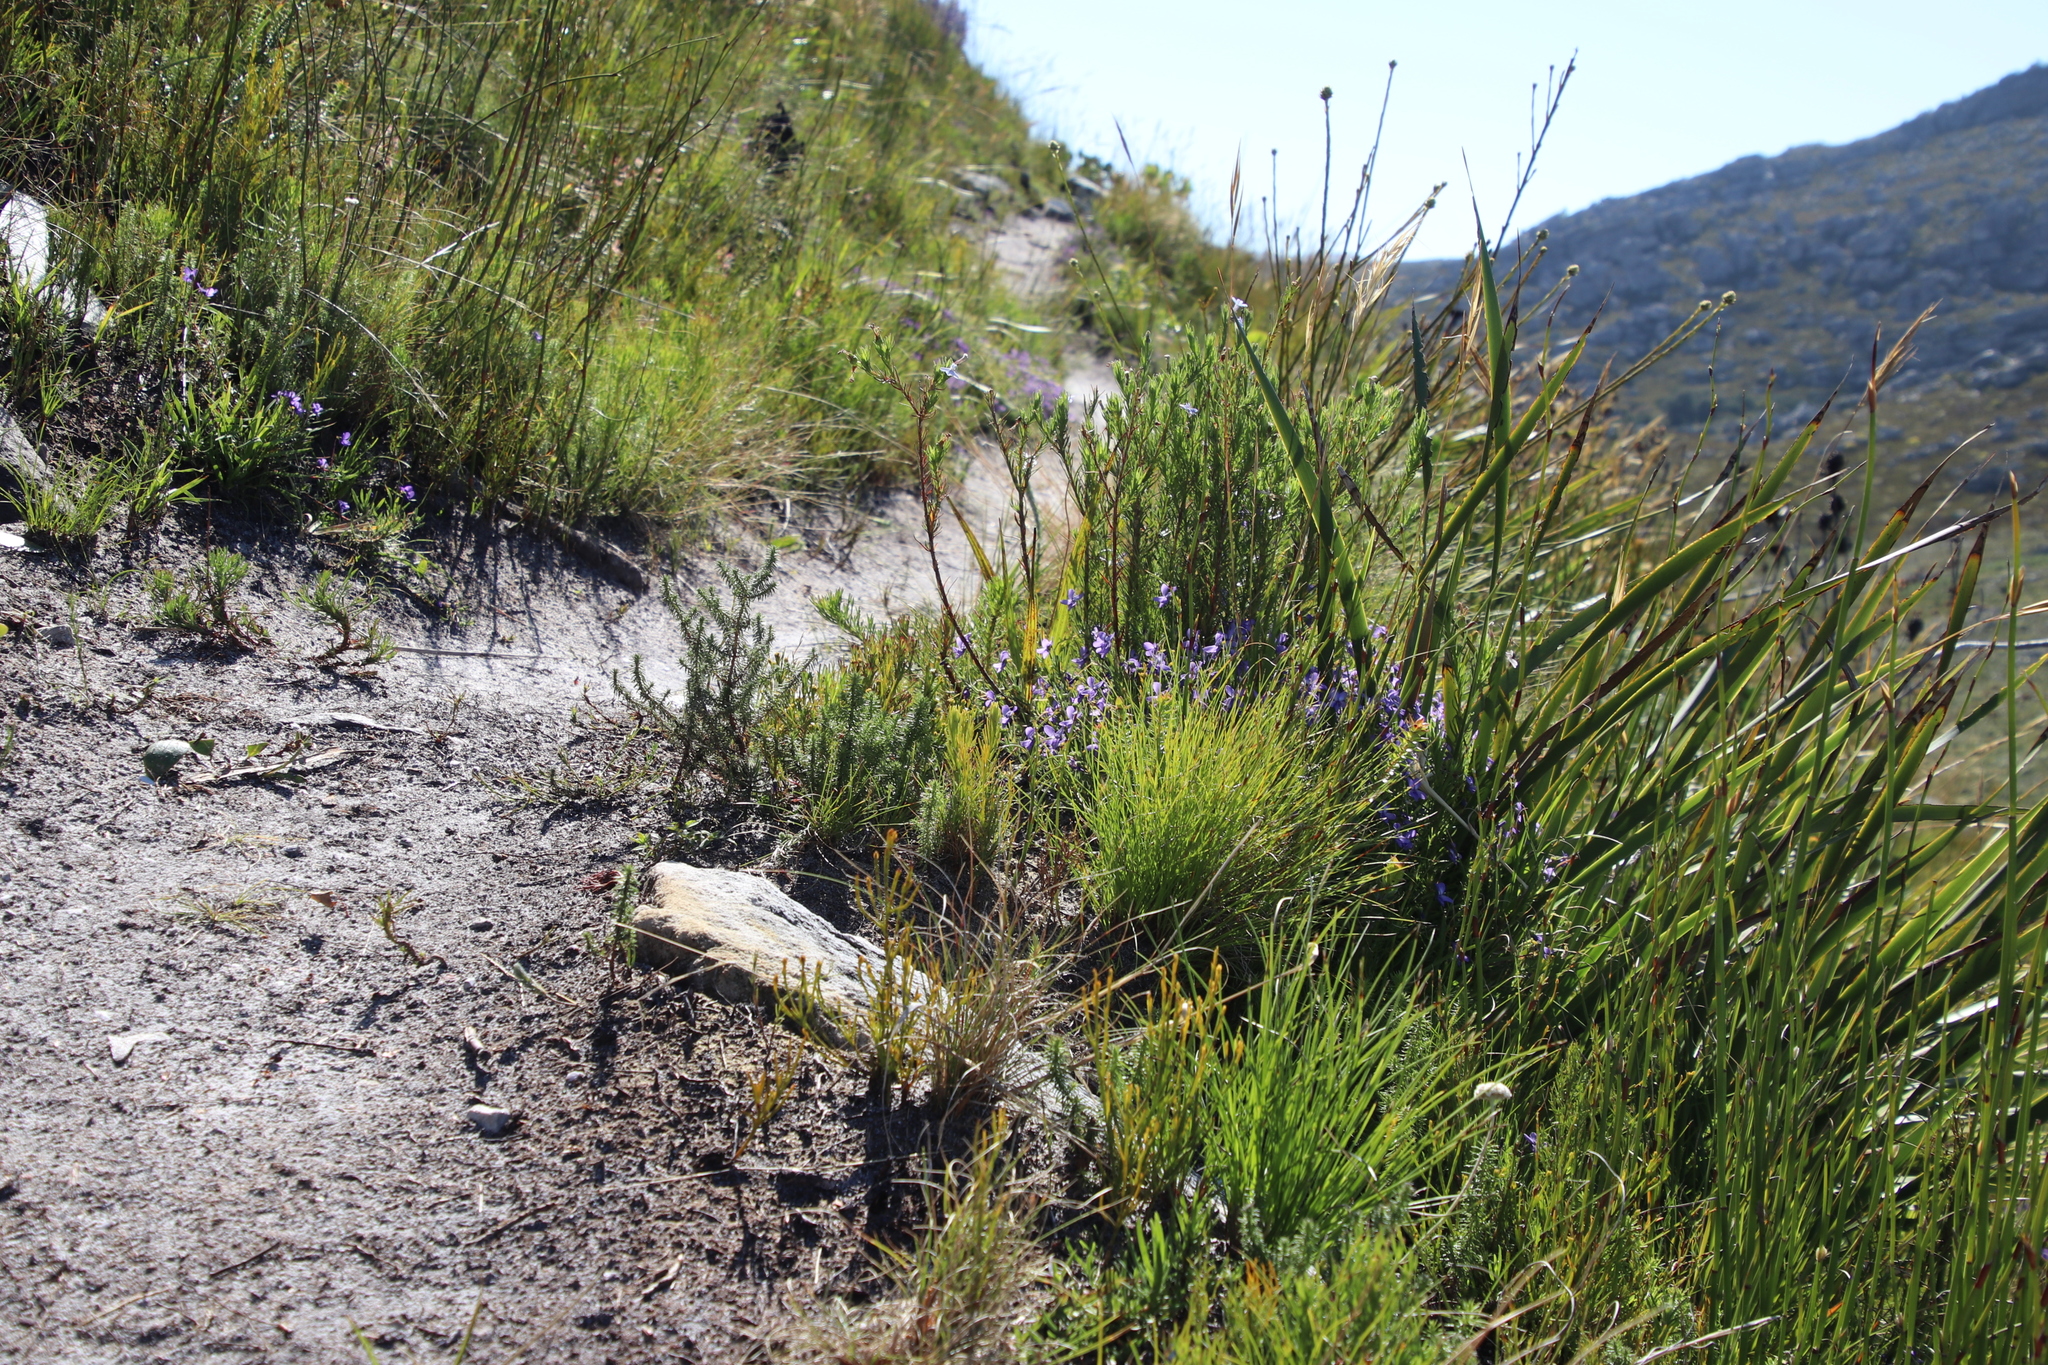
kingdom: Plantae
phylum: Tracheophyta
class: Magnoliopsida
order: Malpighiales
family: Violaceae
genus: Viola
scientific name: Viola decumbens
